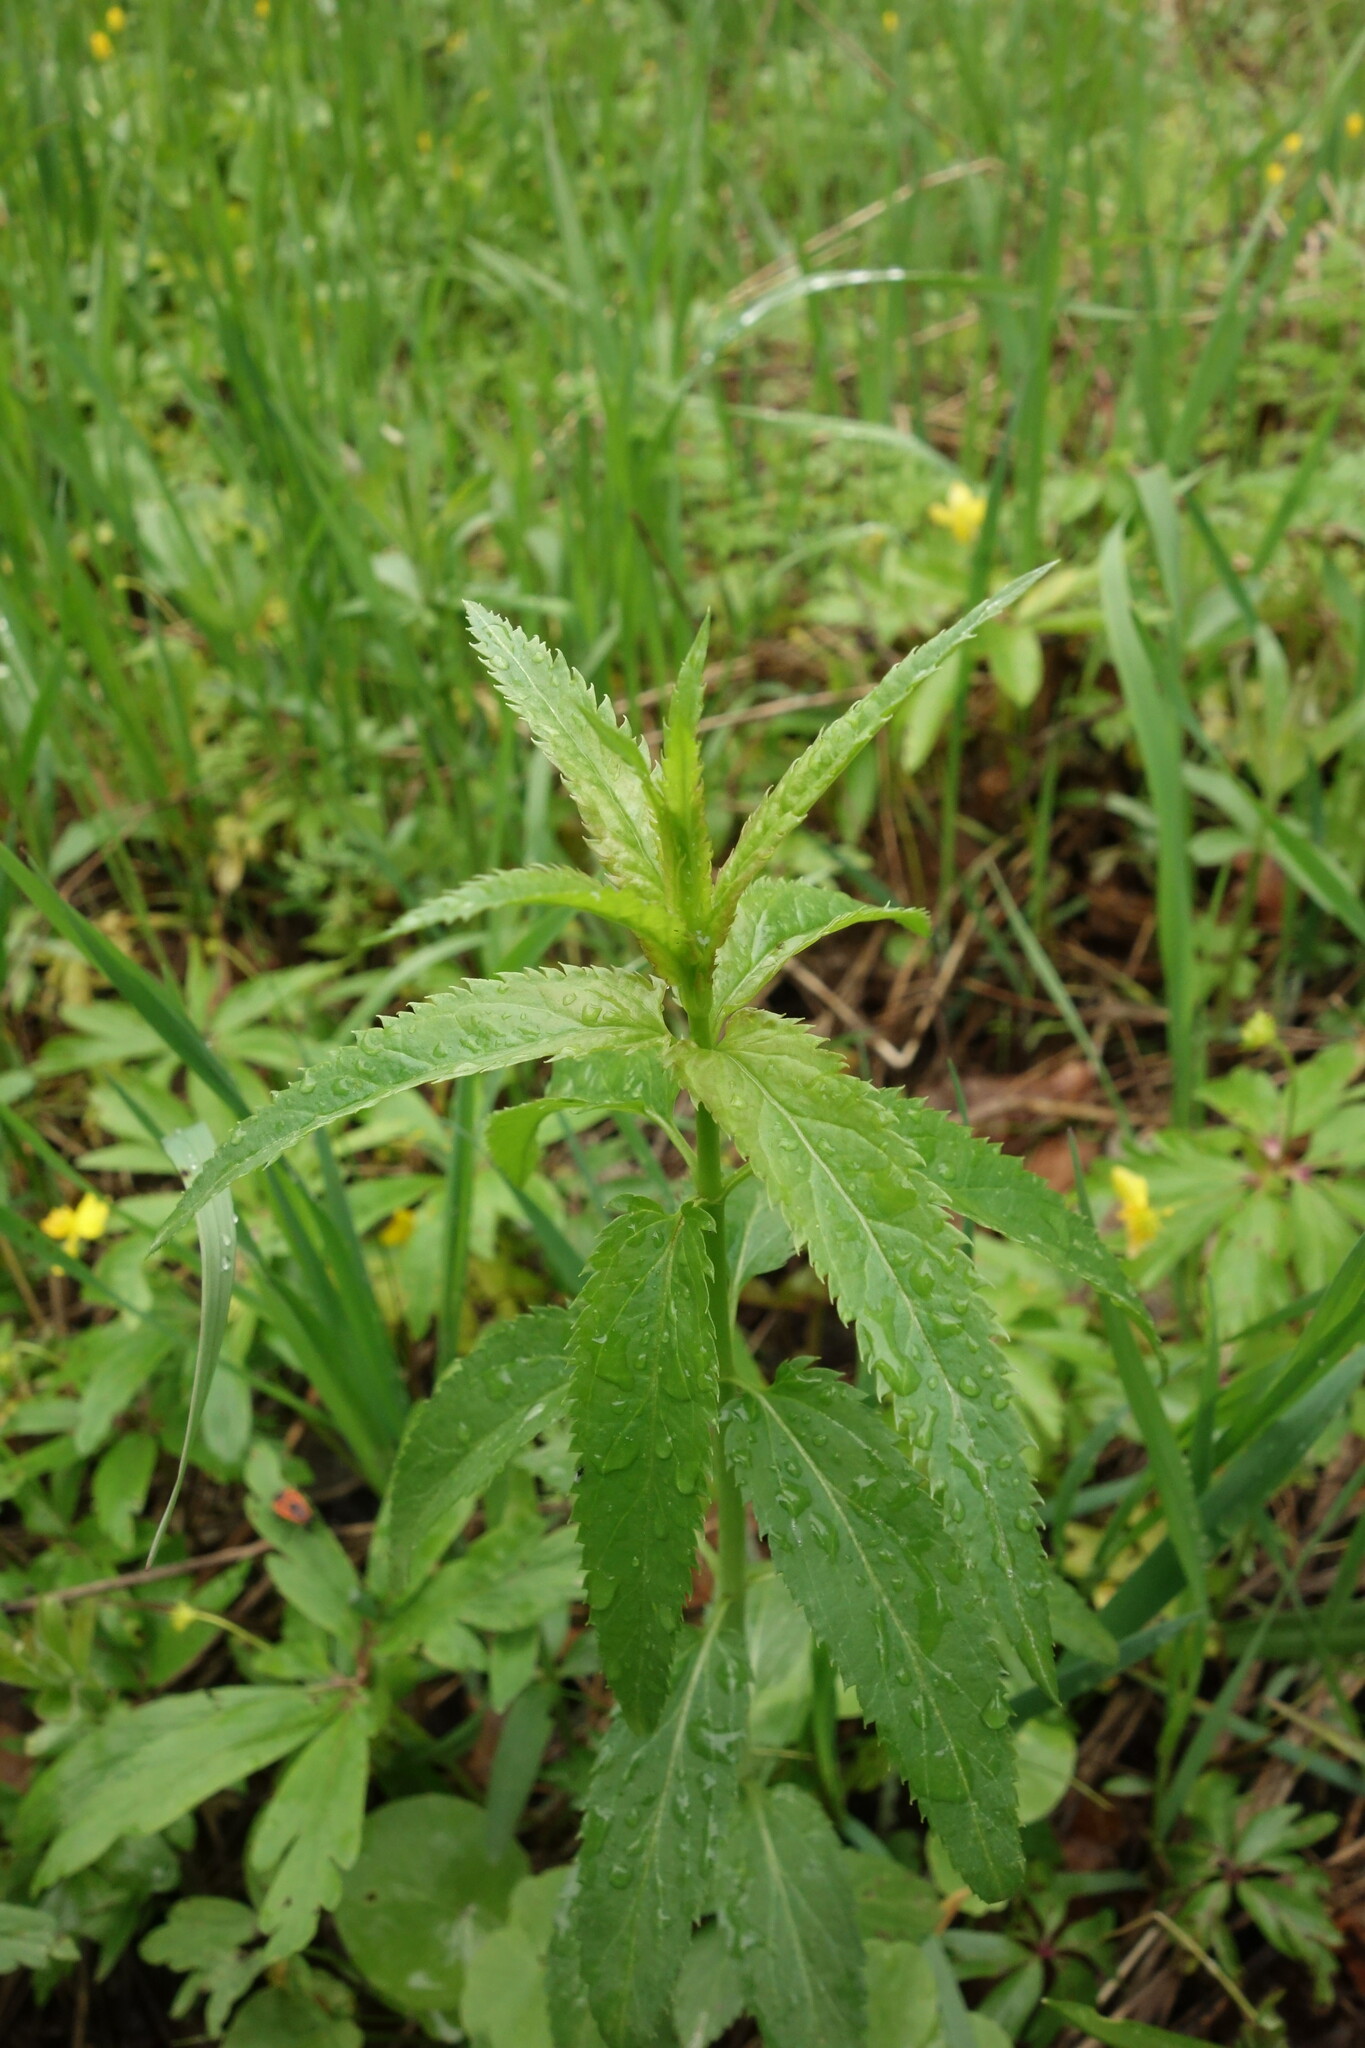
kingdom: Plantae
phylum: Tracheophyta
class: Magnoliopsida
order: Lamiales
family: Plantaginaceae
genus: Veronica
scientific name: Veronica longifolia
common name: Garden speedwell
